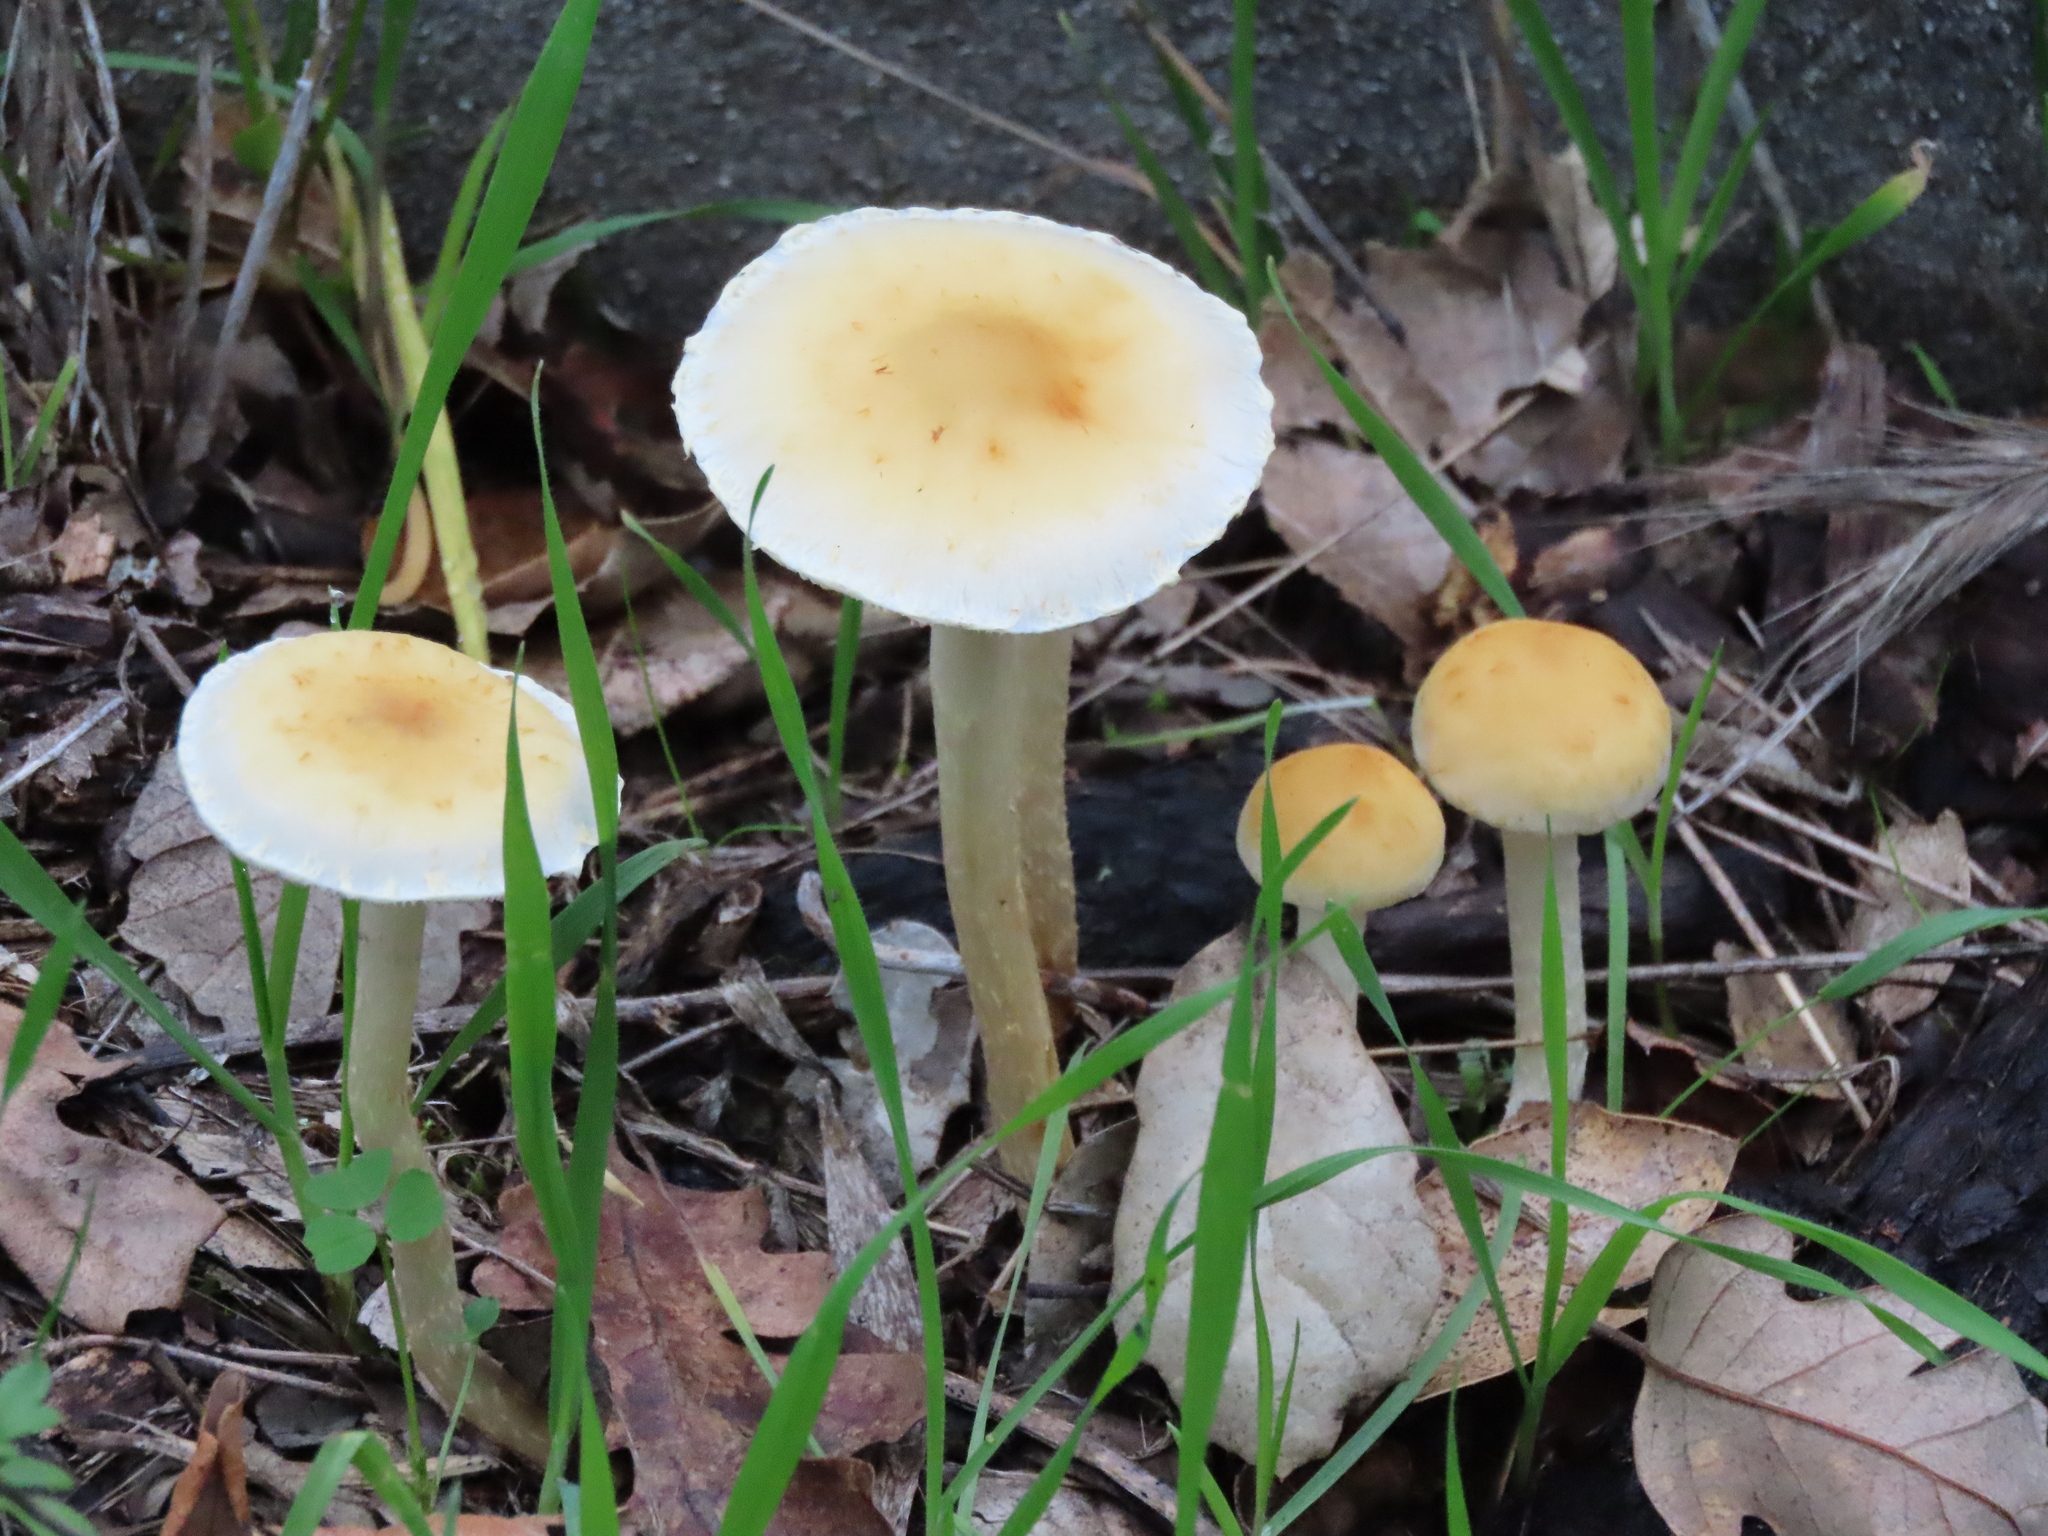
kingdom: Fungi
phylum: Basidiomycota
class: Agaricomycetes
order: Agaricales
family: Strophariaceae
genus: Leratiomyces
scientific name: Leratiomyces percevalii
